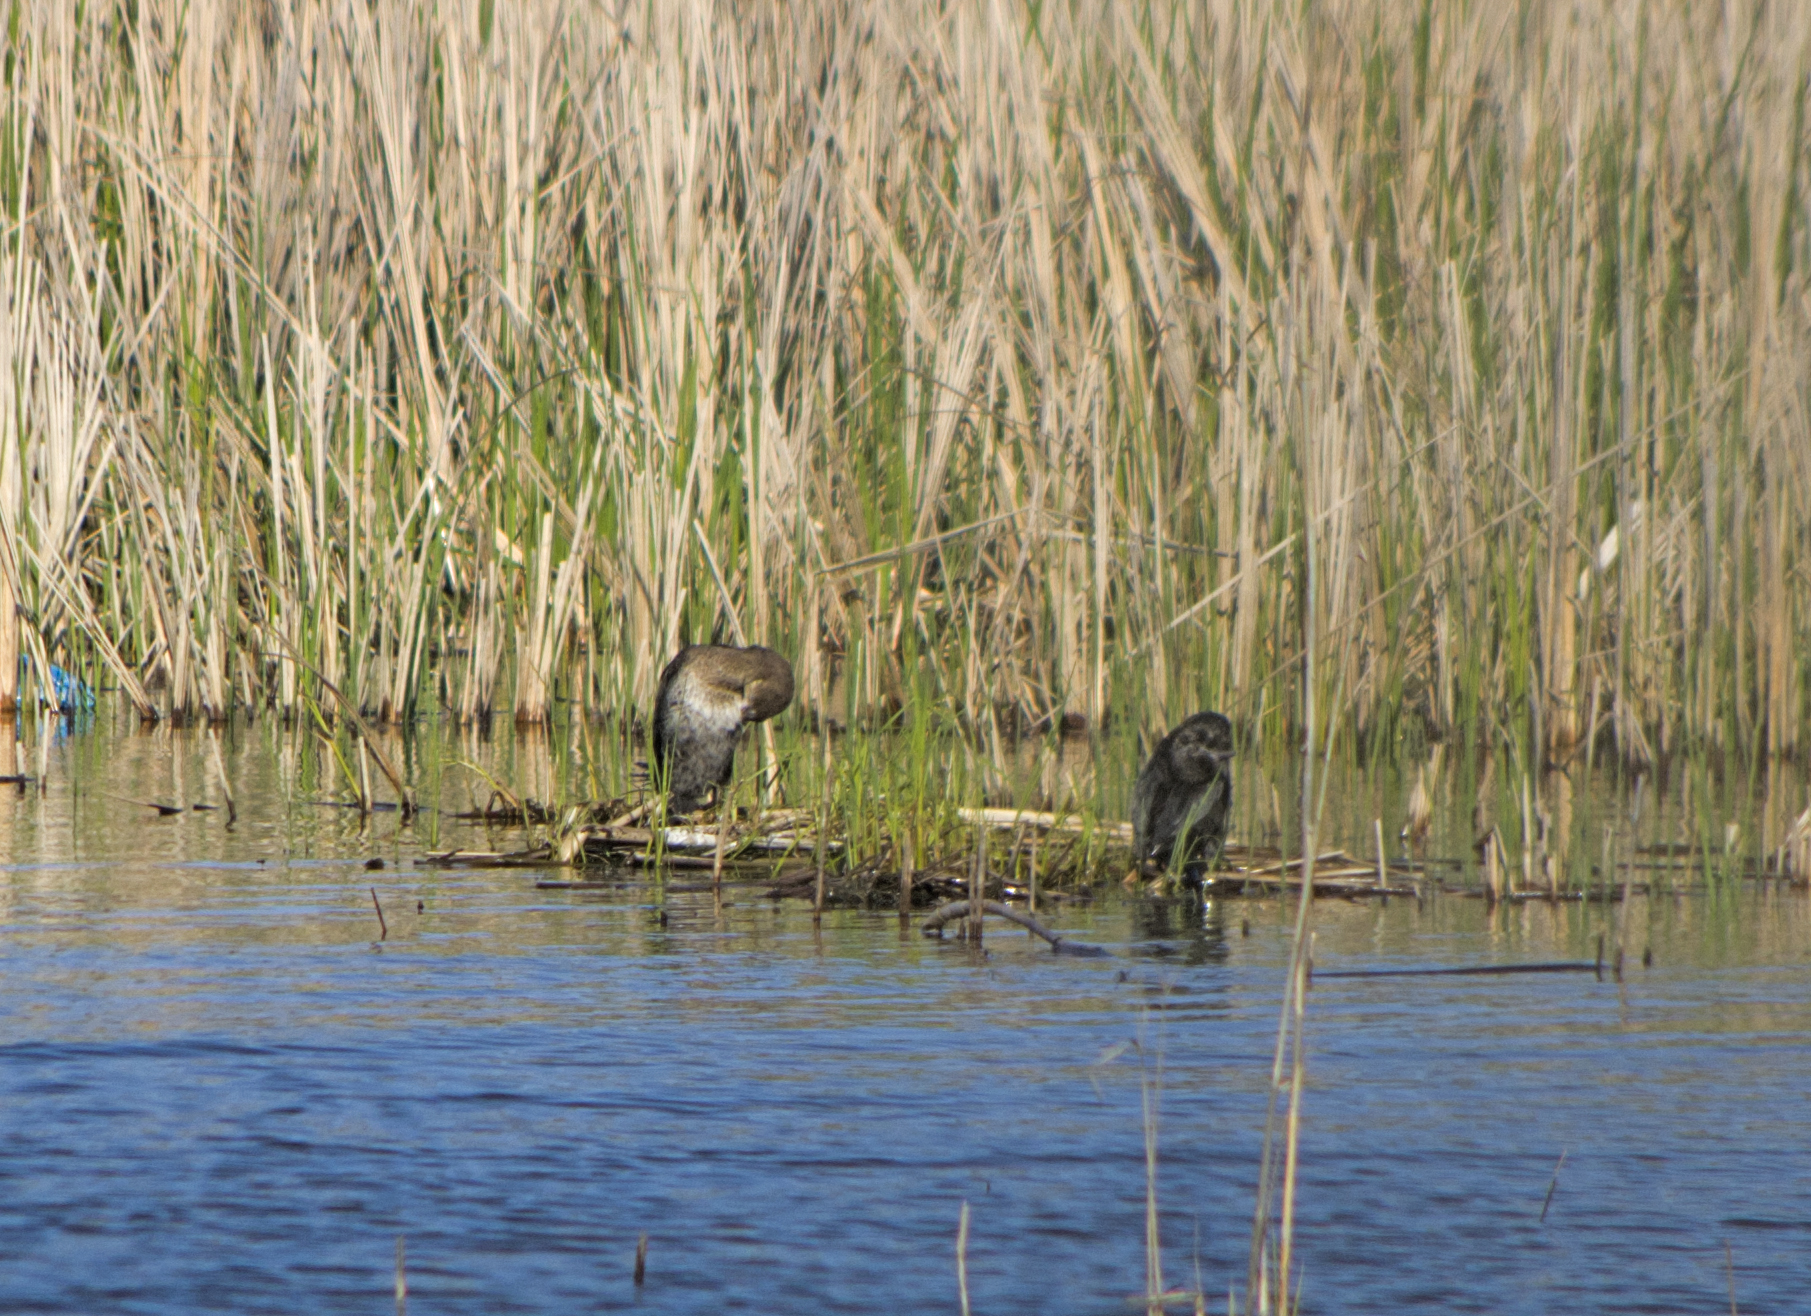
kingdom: Animalia
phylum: Chordata
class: Aves
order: Suliformes
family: Phalacrocoracidae
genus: Microcarbo
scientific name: Microcarbo pygmaeus
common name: Pygmy cormorant
